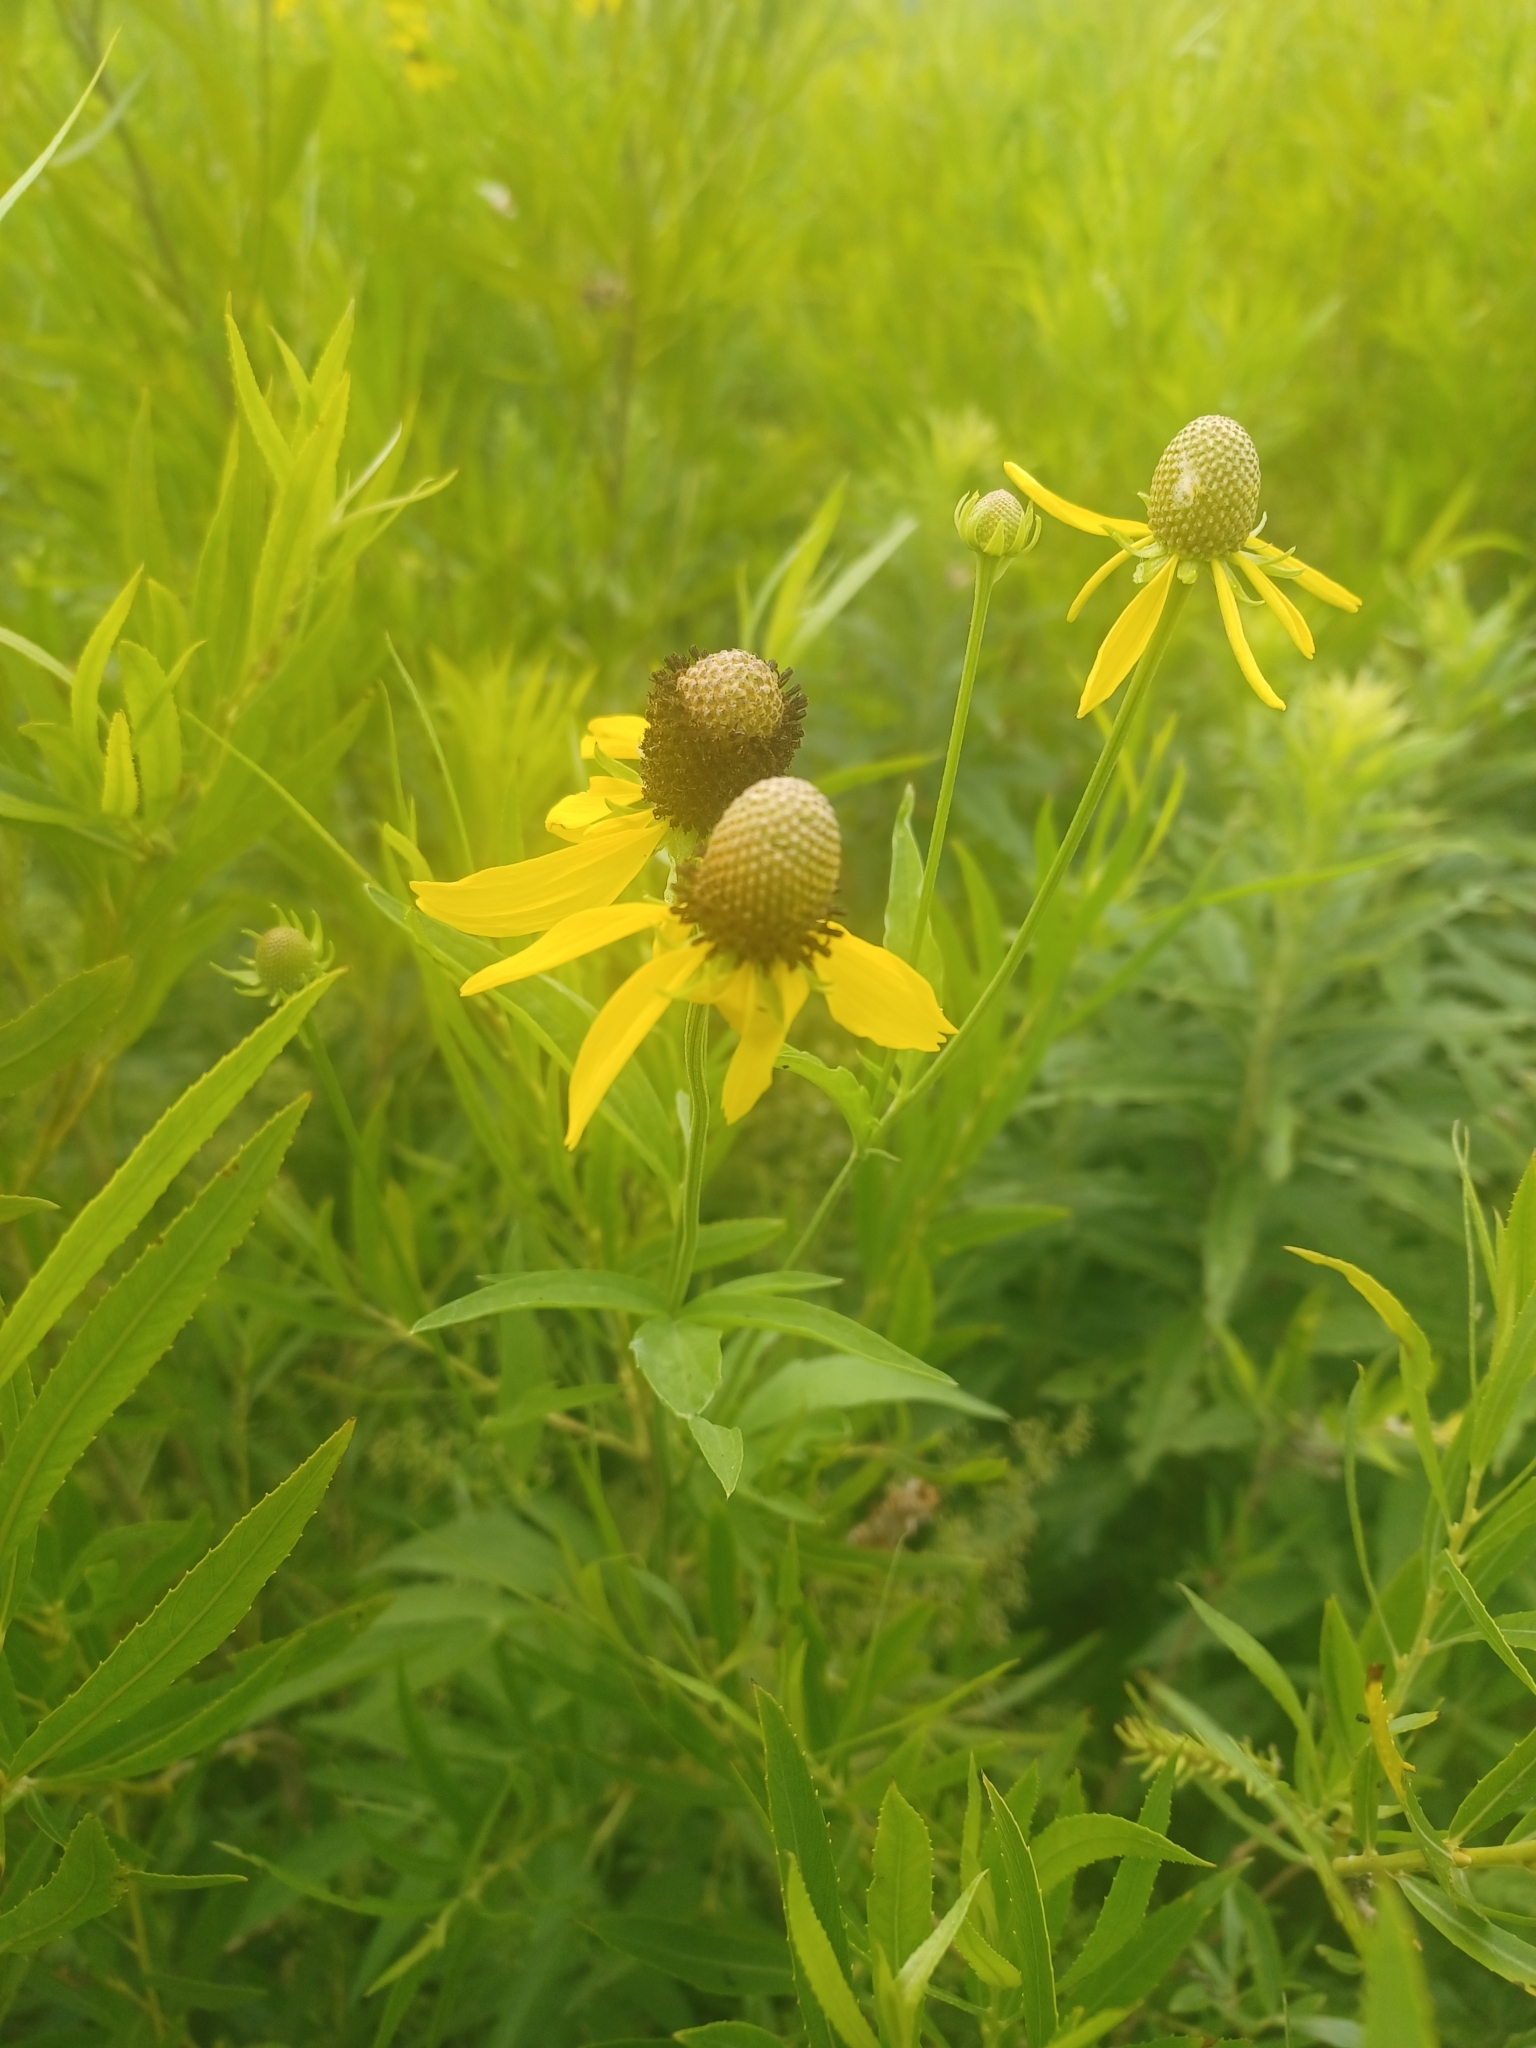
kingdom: Plantae
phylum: Tracheophyta
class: Magnoliopsida
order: Asterales
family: Asteraceae
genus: Ratibida
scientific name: Ratibida pinnata
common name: Drooping prairie-coneflower
